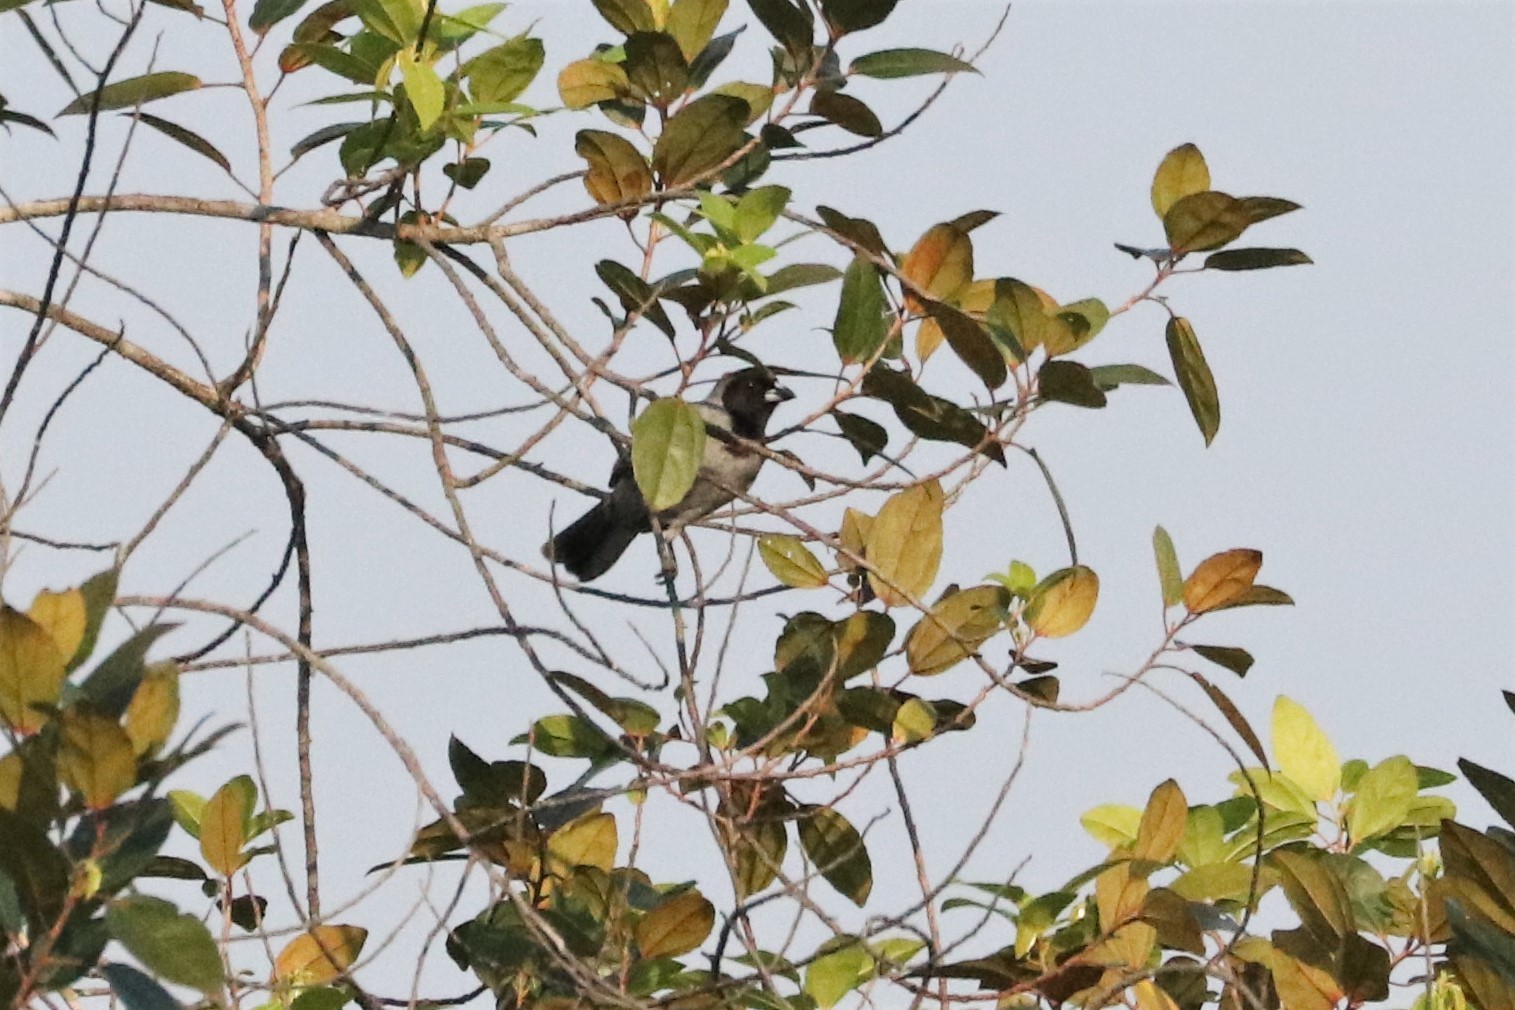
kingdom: Animalia
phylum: Chordata
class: Aves
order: Passeriformes
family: Thraupidae
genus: Schistochlamys
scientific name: Schistochlamys melanopis
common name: Black-faced tanager
